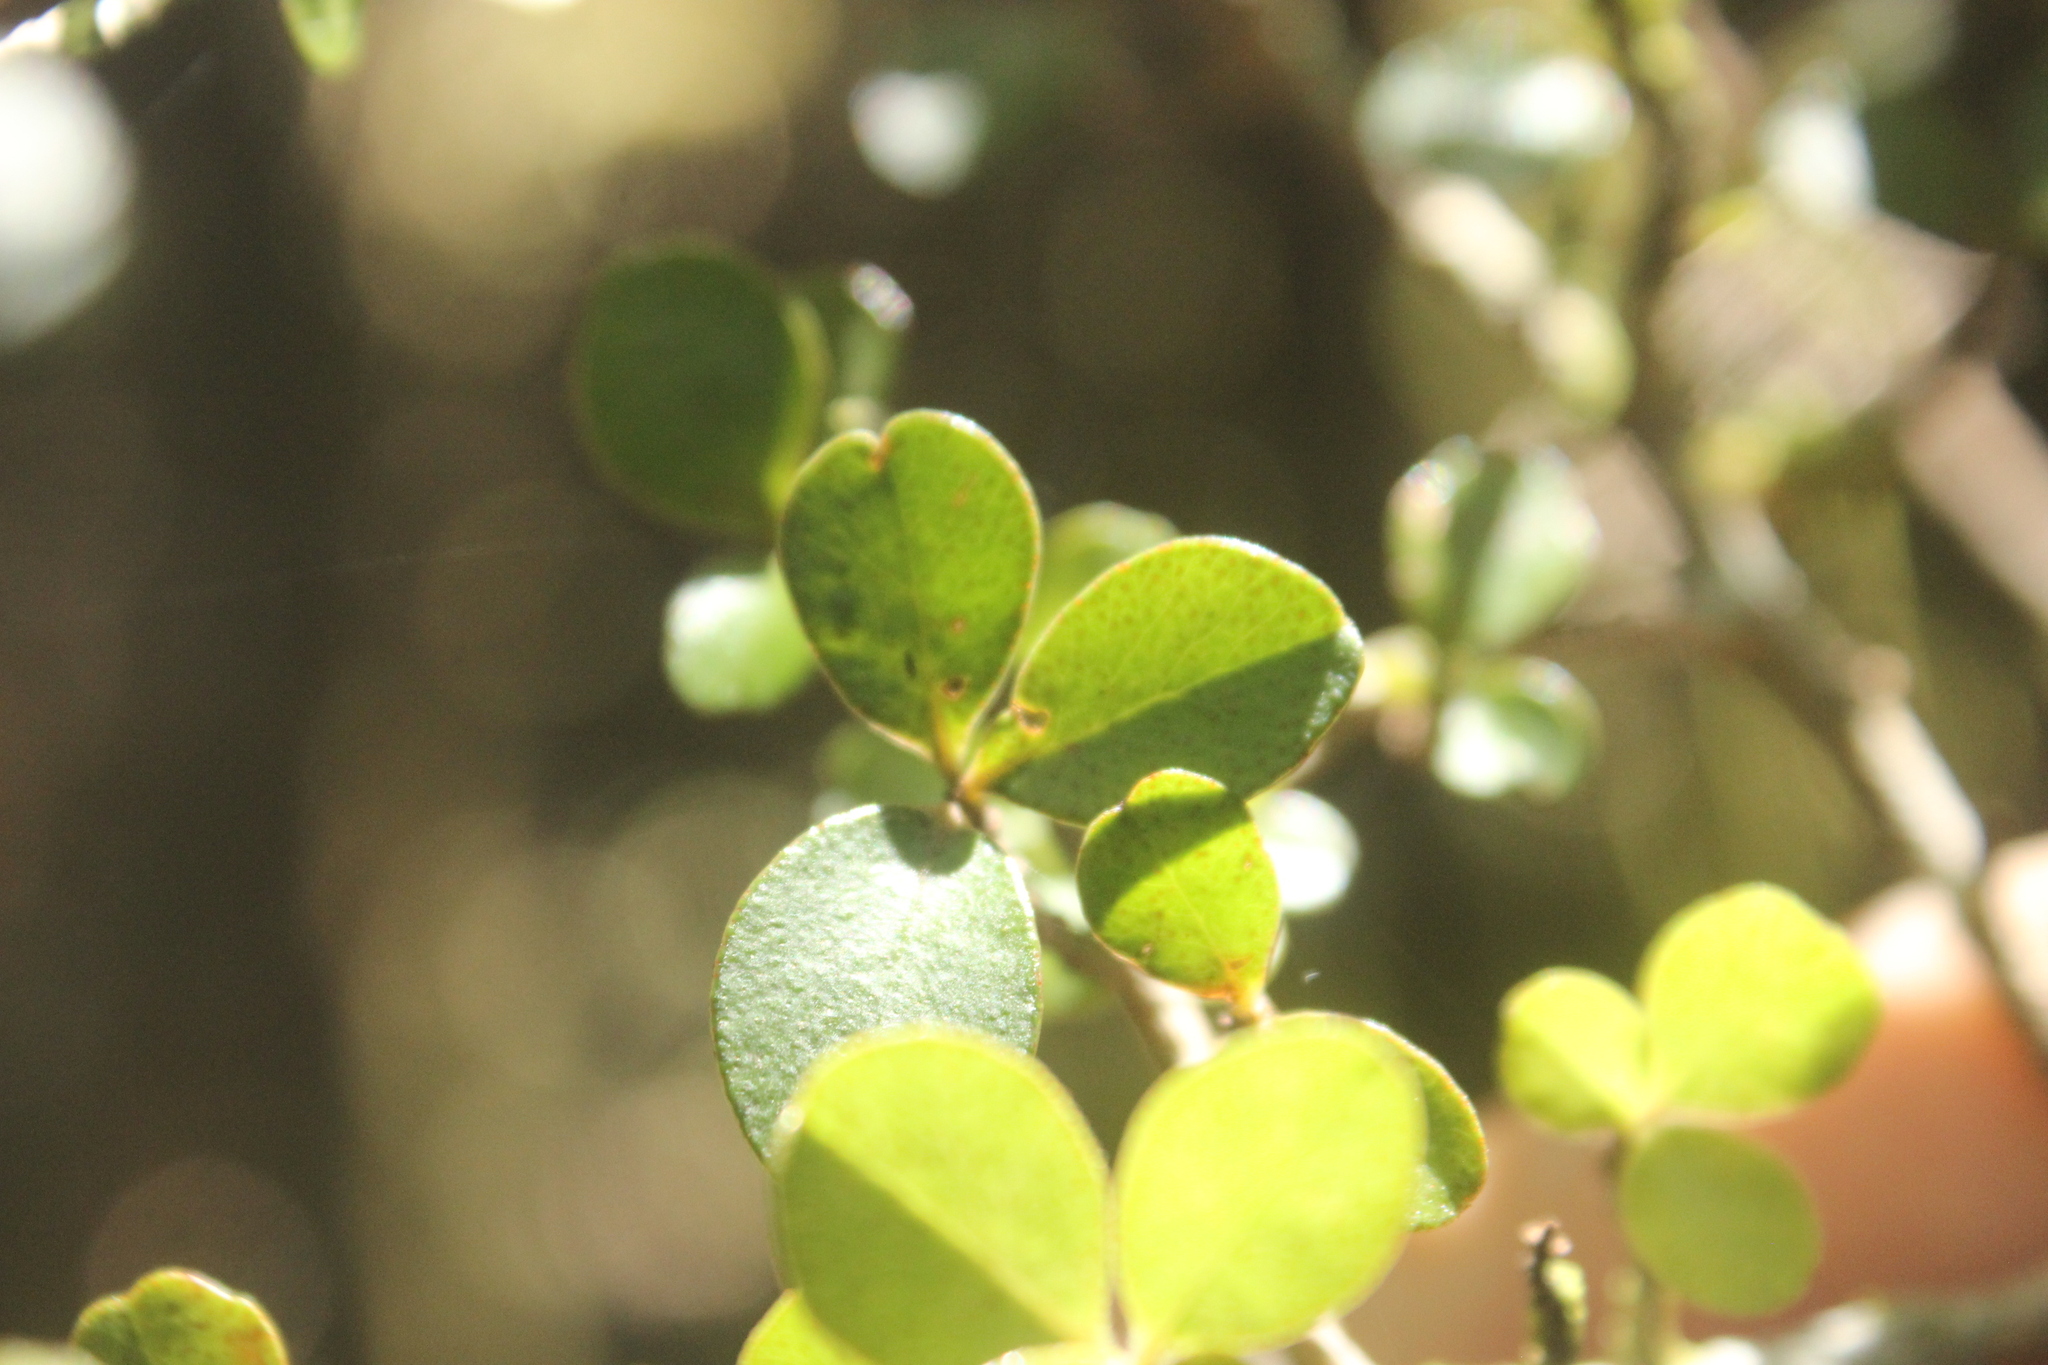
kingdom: Plantae
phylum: Tracheophyta
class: Magnoliopsida
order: Ericales
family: Primulaceae
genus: Myrsine
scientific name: Myrsine divaricata
